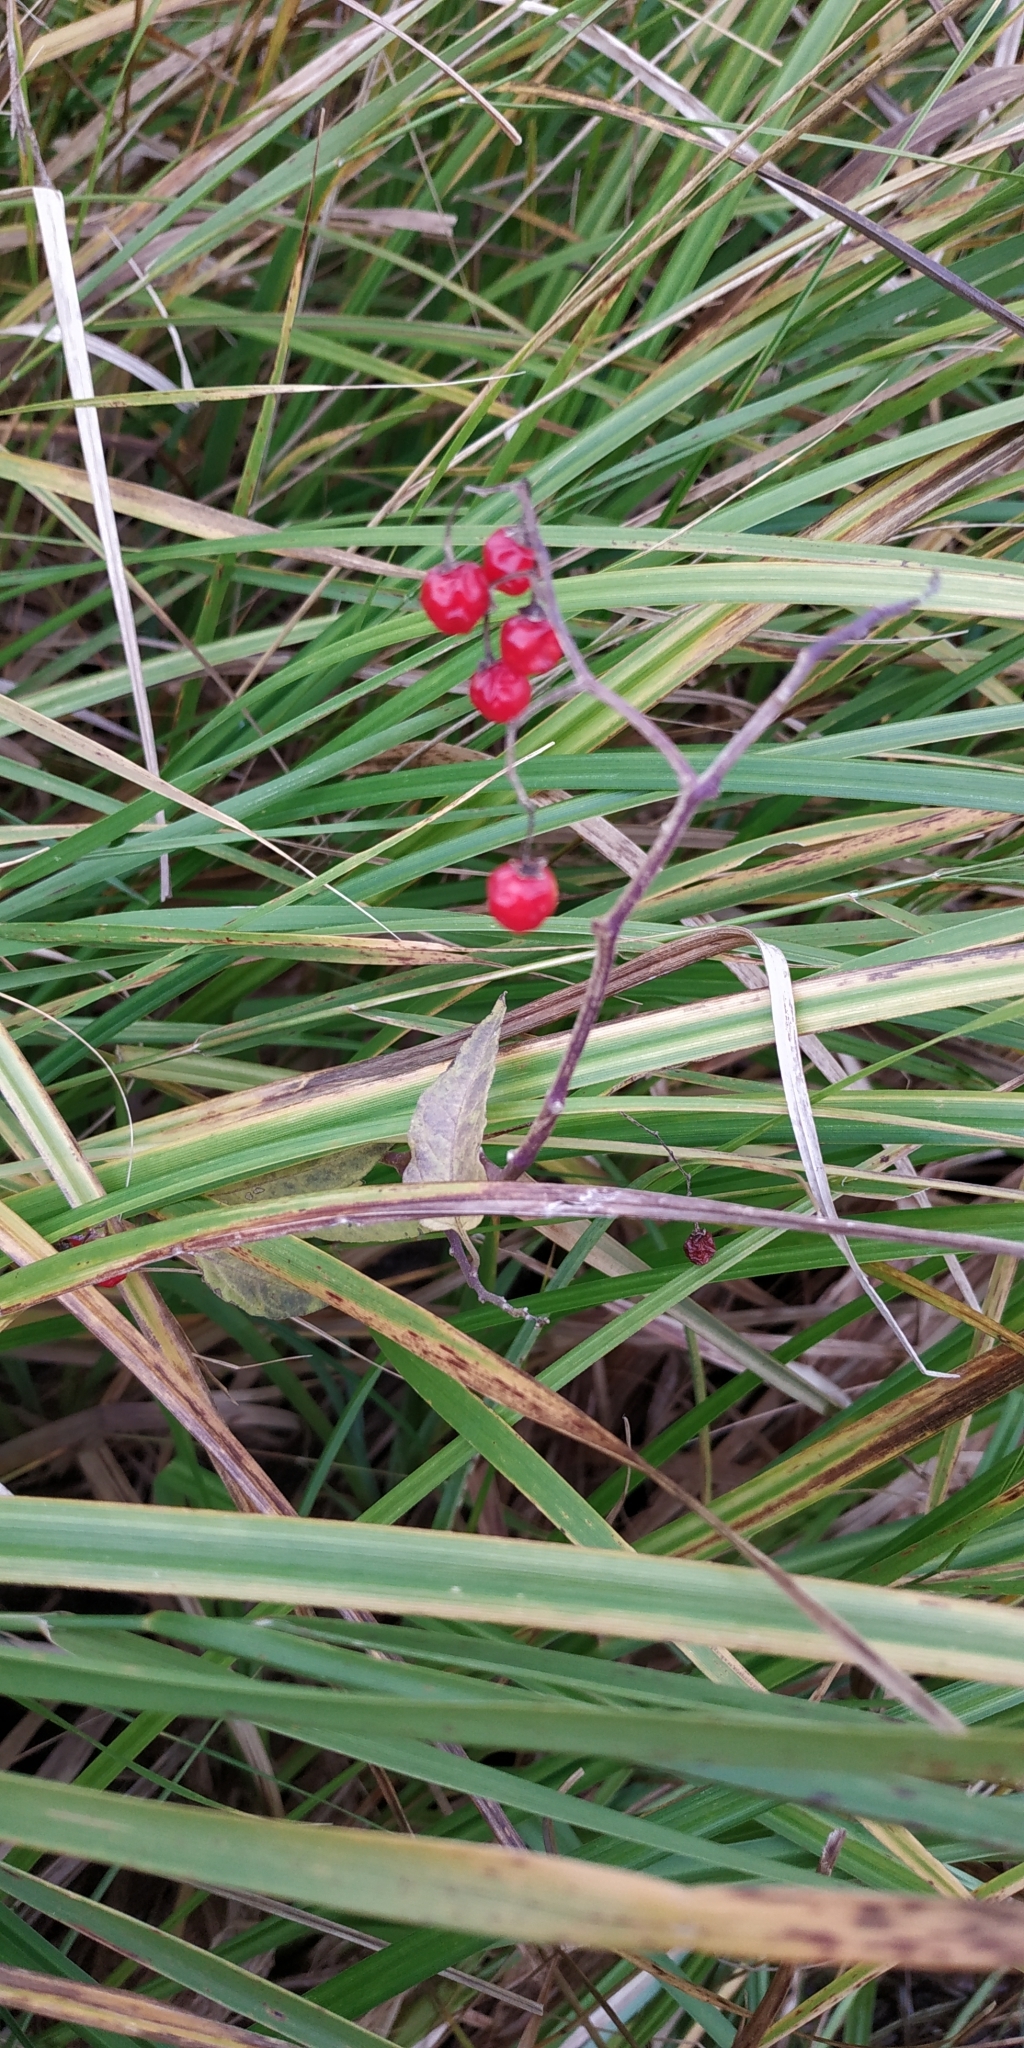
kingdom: Plantae
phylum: Tracheophyta
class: Magnoliopsida
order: Solanales
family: Solanaceae
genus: Solanum
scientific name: Solanum dulcamara
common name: Climbing nightshade
